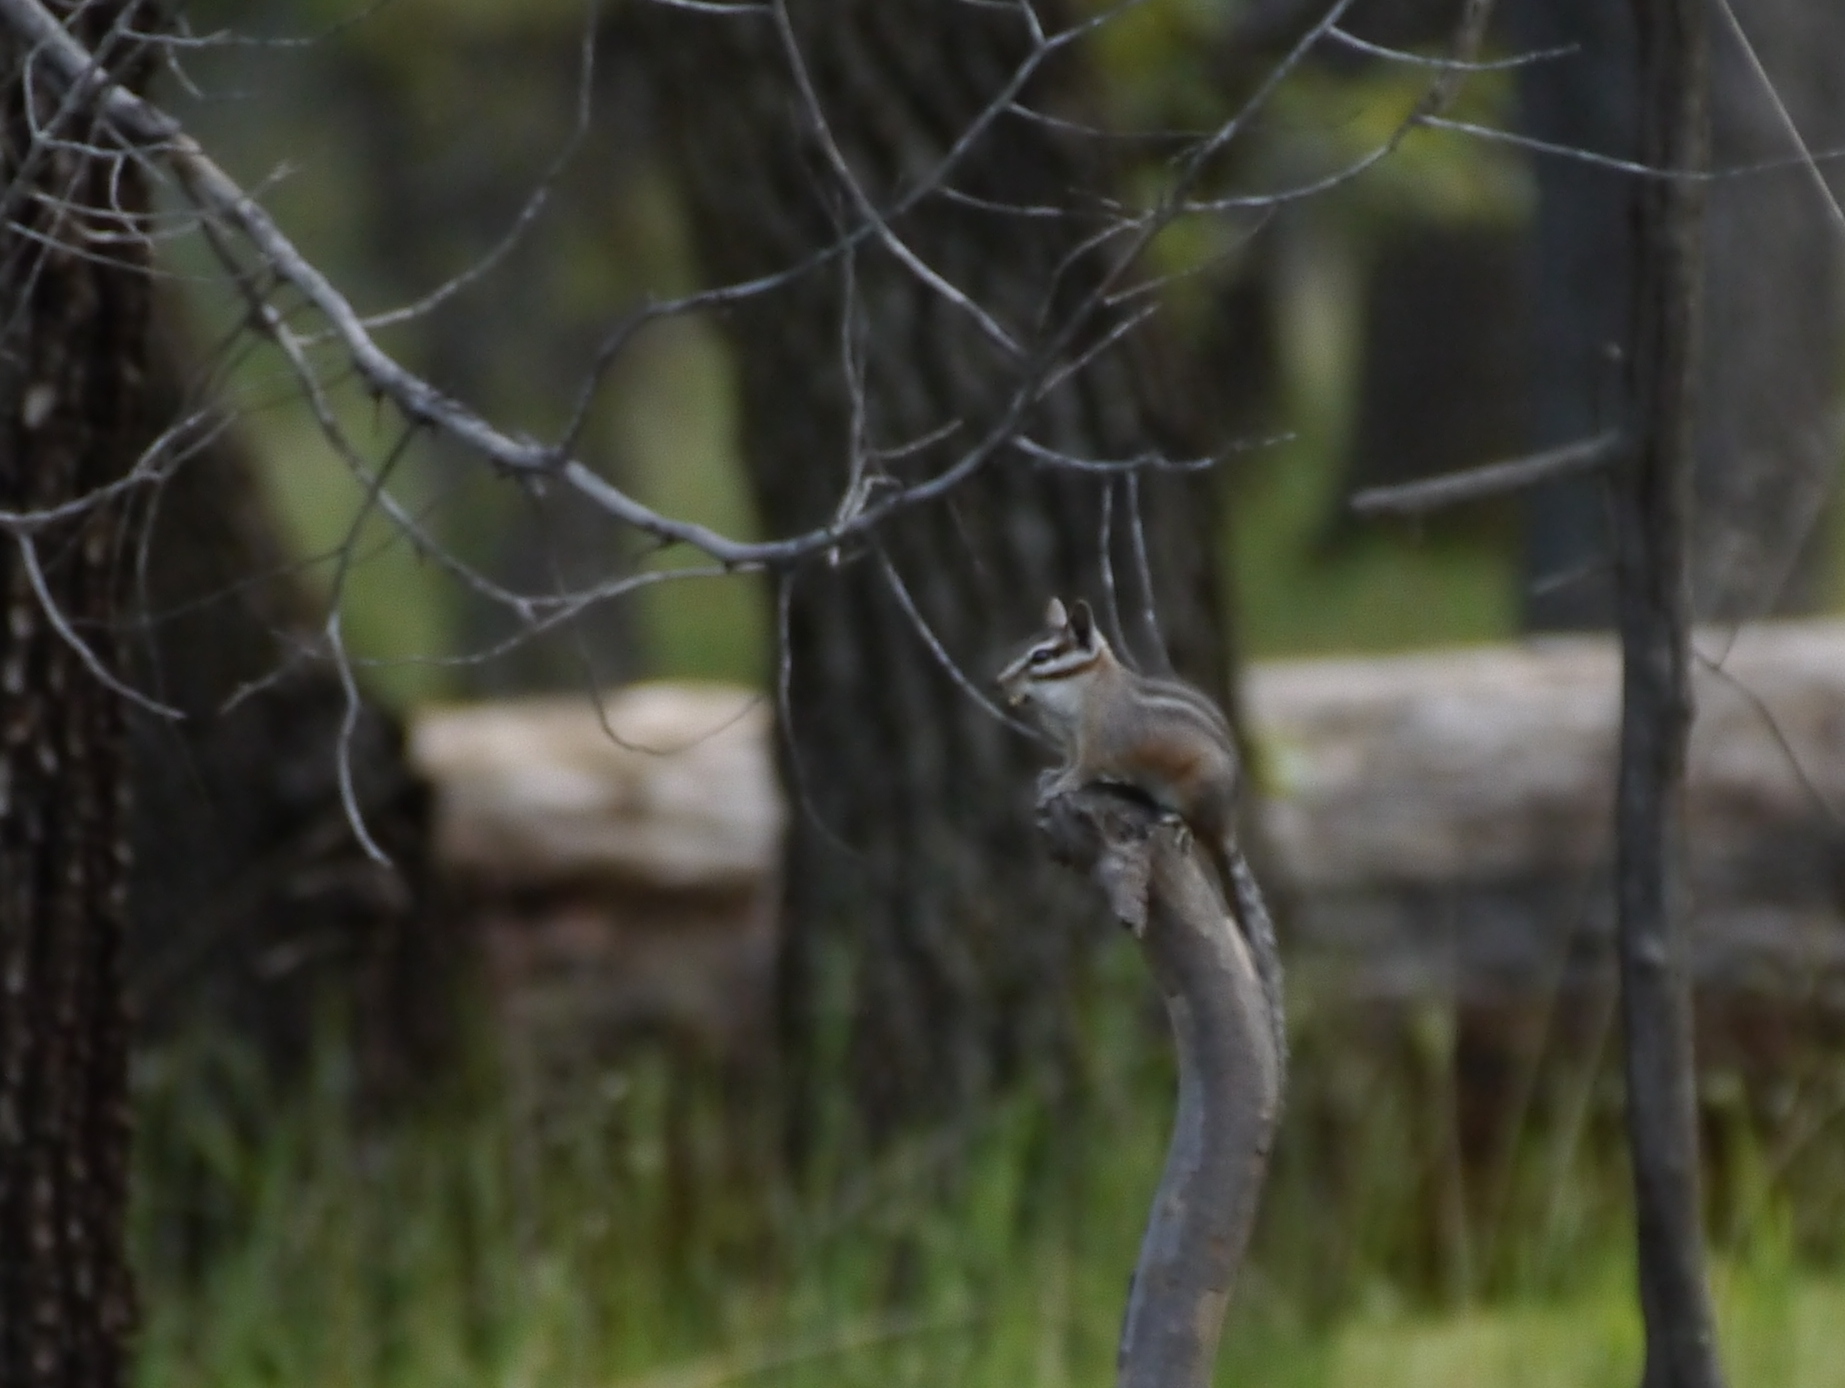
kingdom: Animalia
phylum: Chordata
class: Mammalia
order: Rodentia
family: Sciuridae
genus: Tamias
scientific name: Tamias dorsalis
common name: Cliff chipmunk
